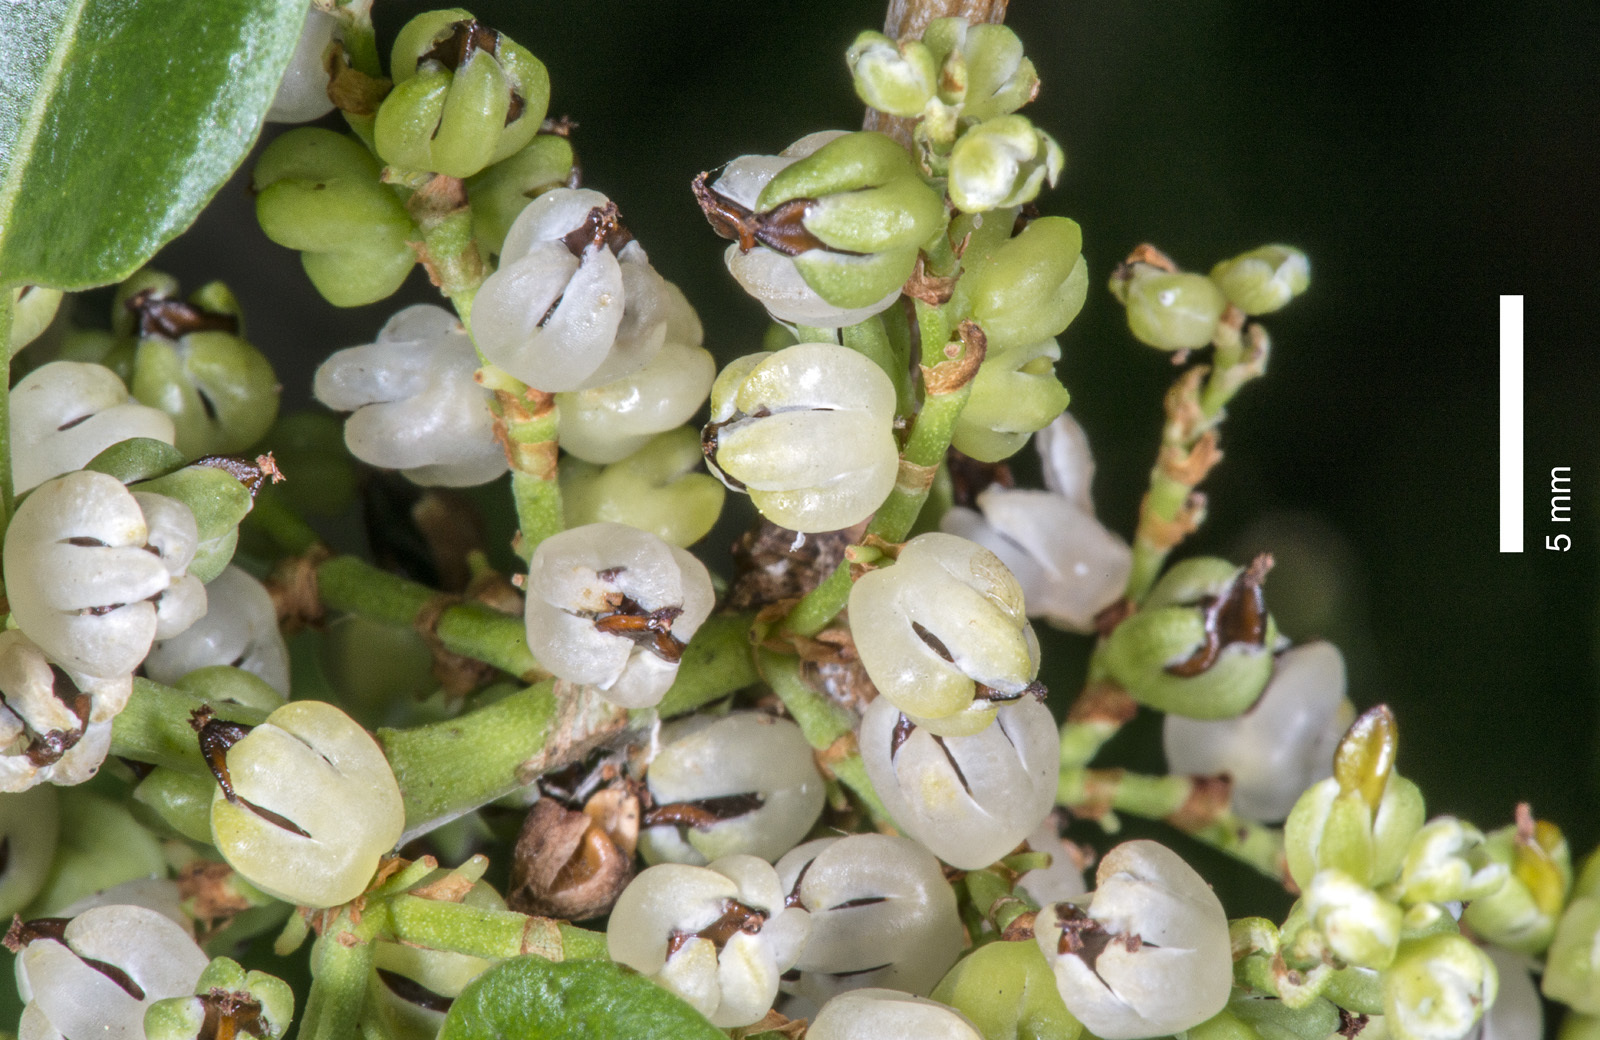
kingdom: Plantae
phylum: Tracheophyta
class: Magnoliopsida
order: Caryophyllales
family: Polygonaceae
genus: Muehlenbeckia
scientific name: Muehlenbeckia australis
